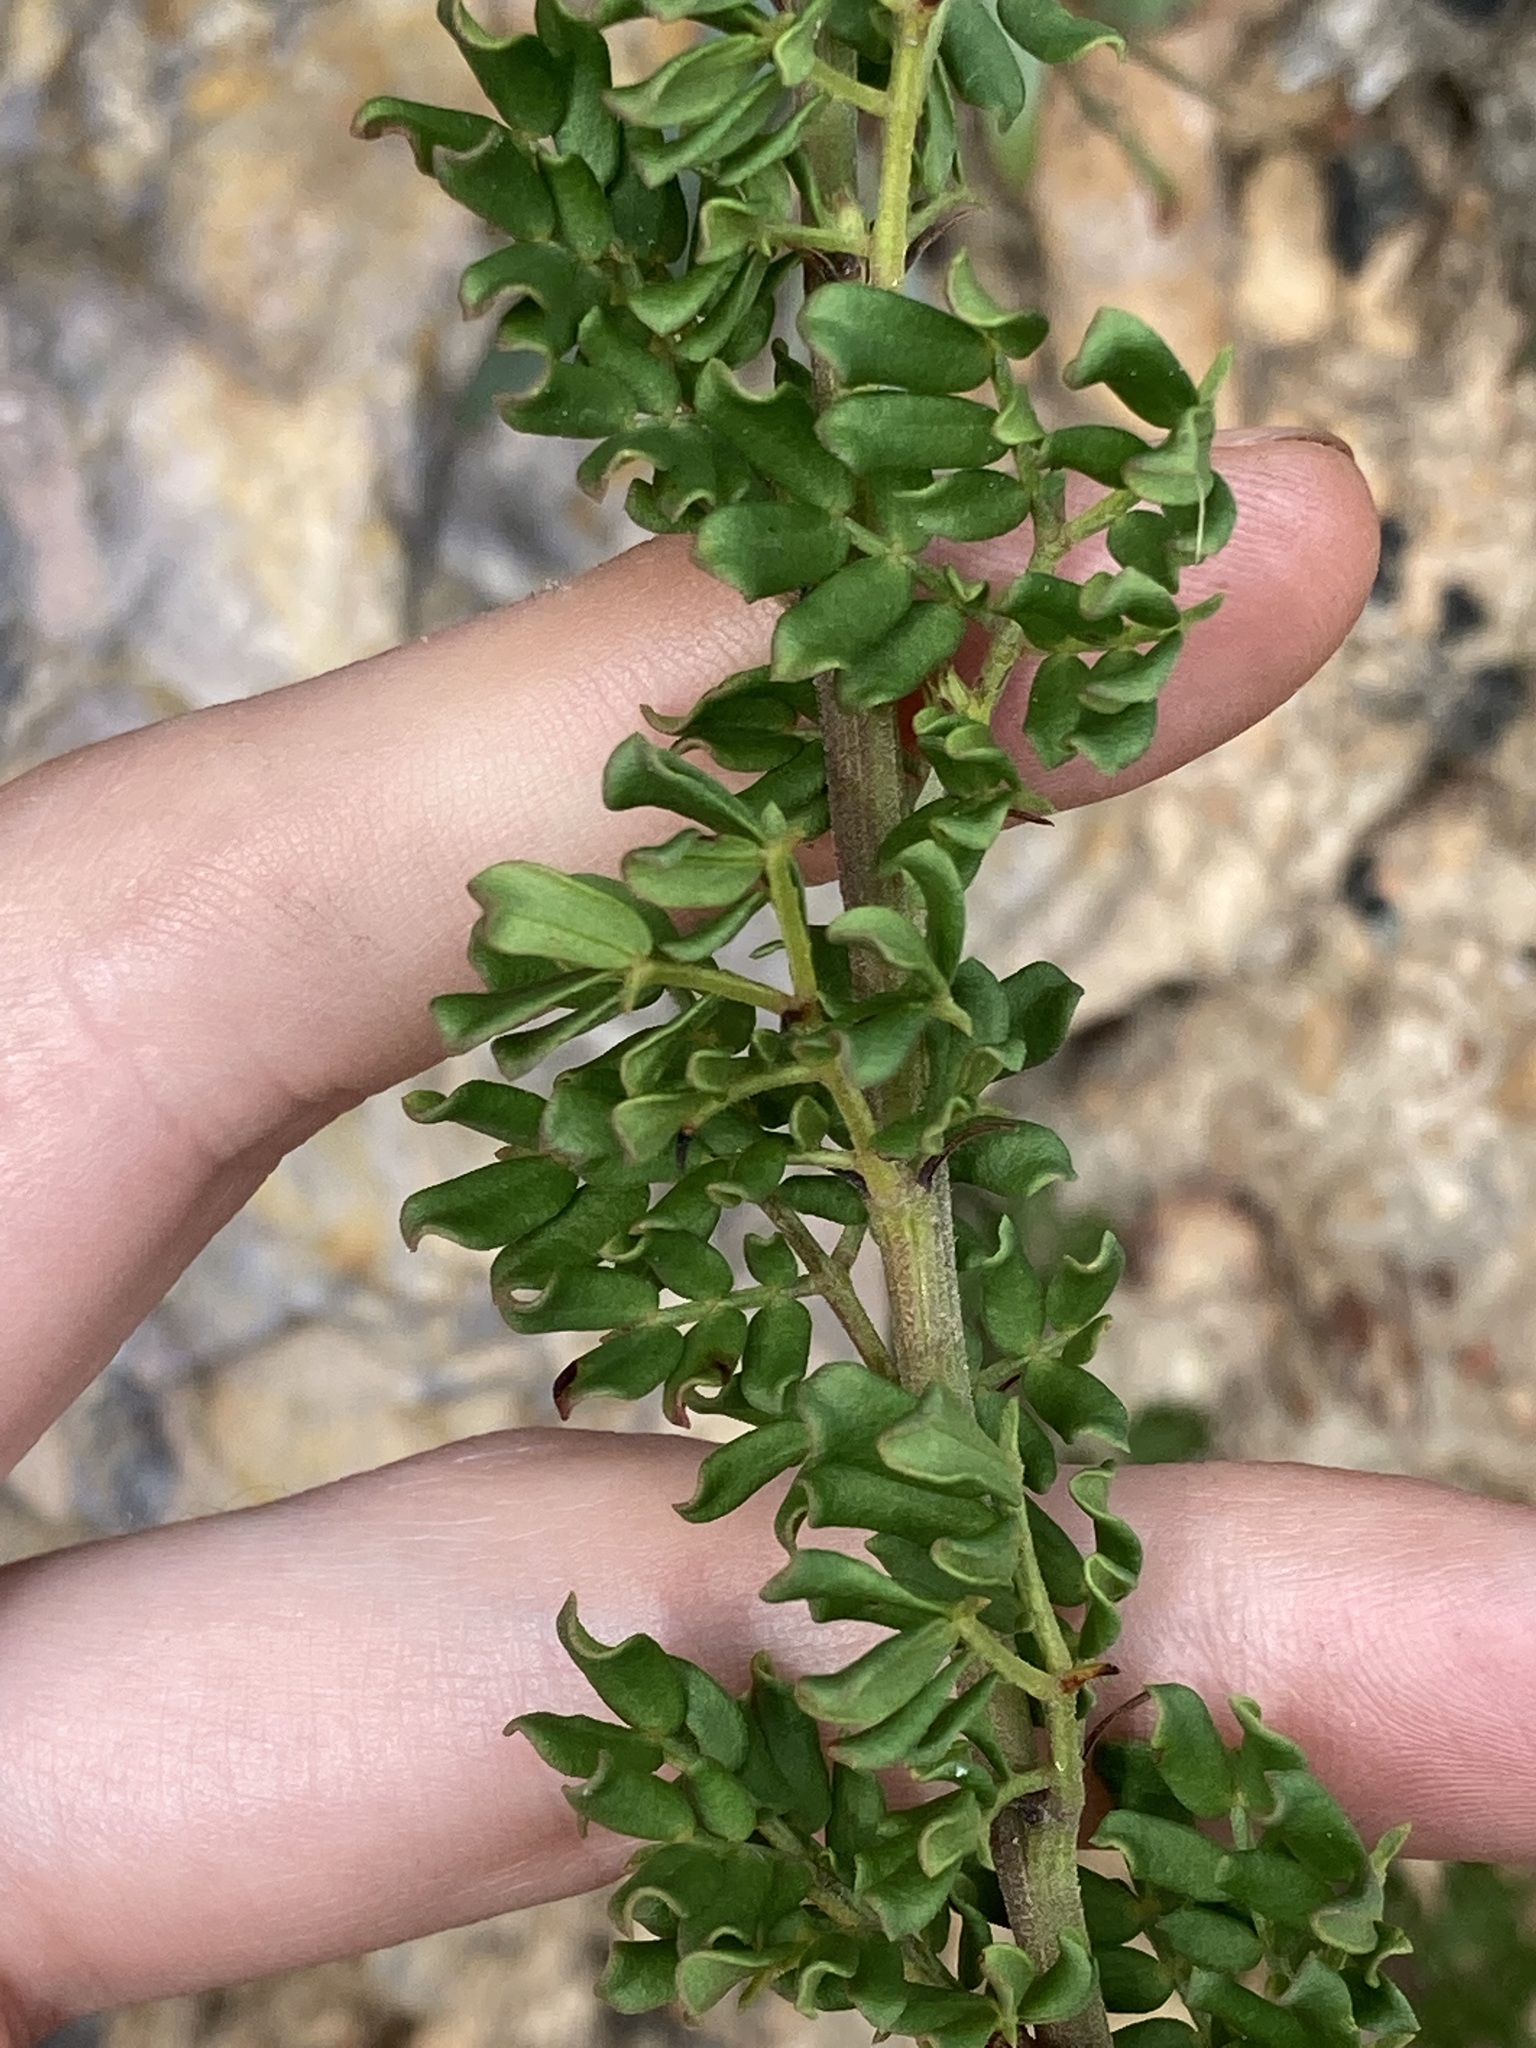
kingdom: Plantae
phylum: Tracheophyta
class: Magnoliopsida
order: Fabales
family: Fabaceae
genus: Acacia
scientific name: Acacia drummondii
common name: Drummond's wattle
